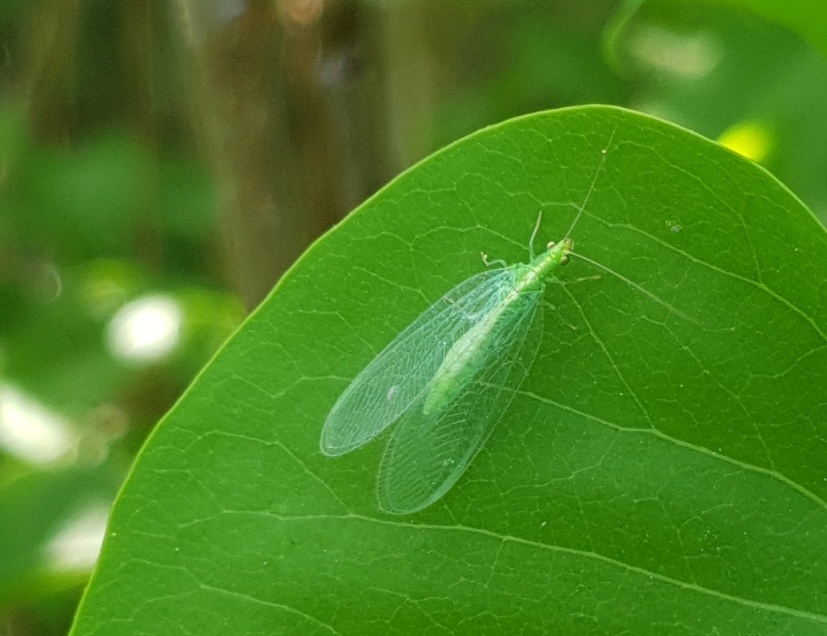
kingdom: Animalia
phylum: Arthropoda
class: Insecta
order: Neuroptera
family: Chrysopidae
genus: Chrysoperla
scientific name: Chrysoperla
